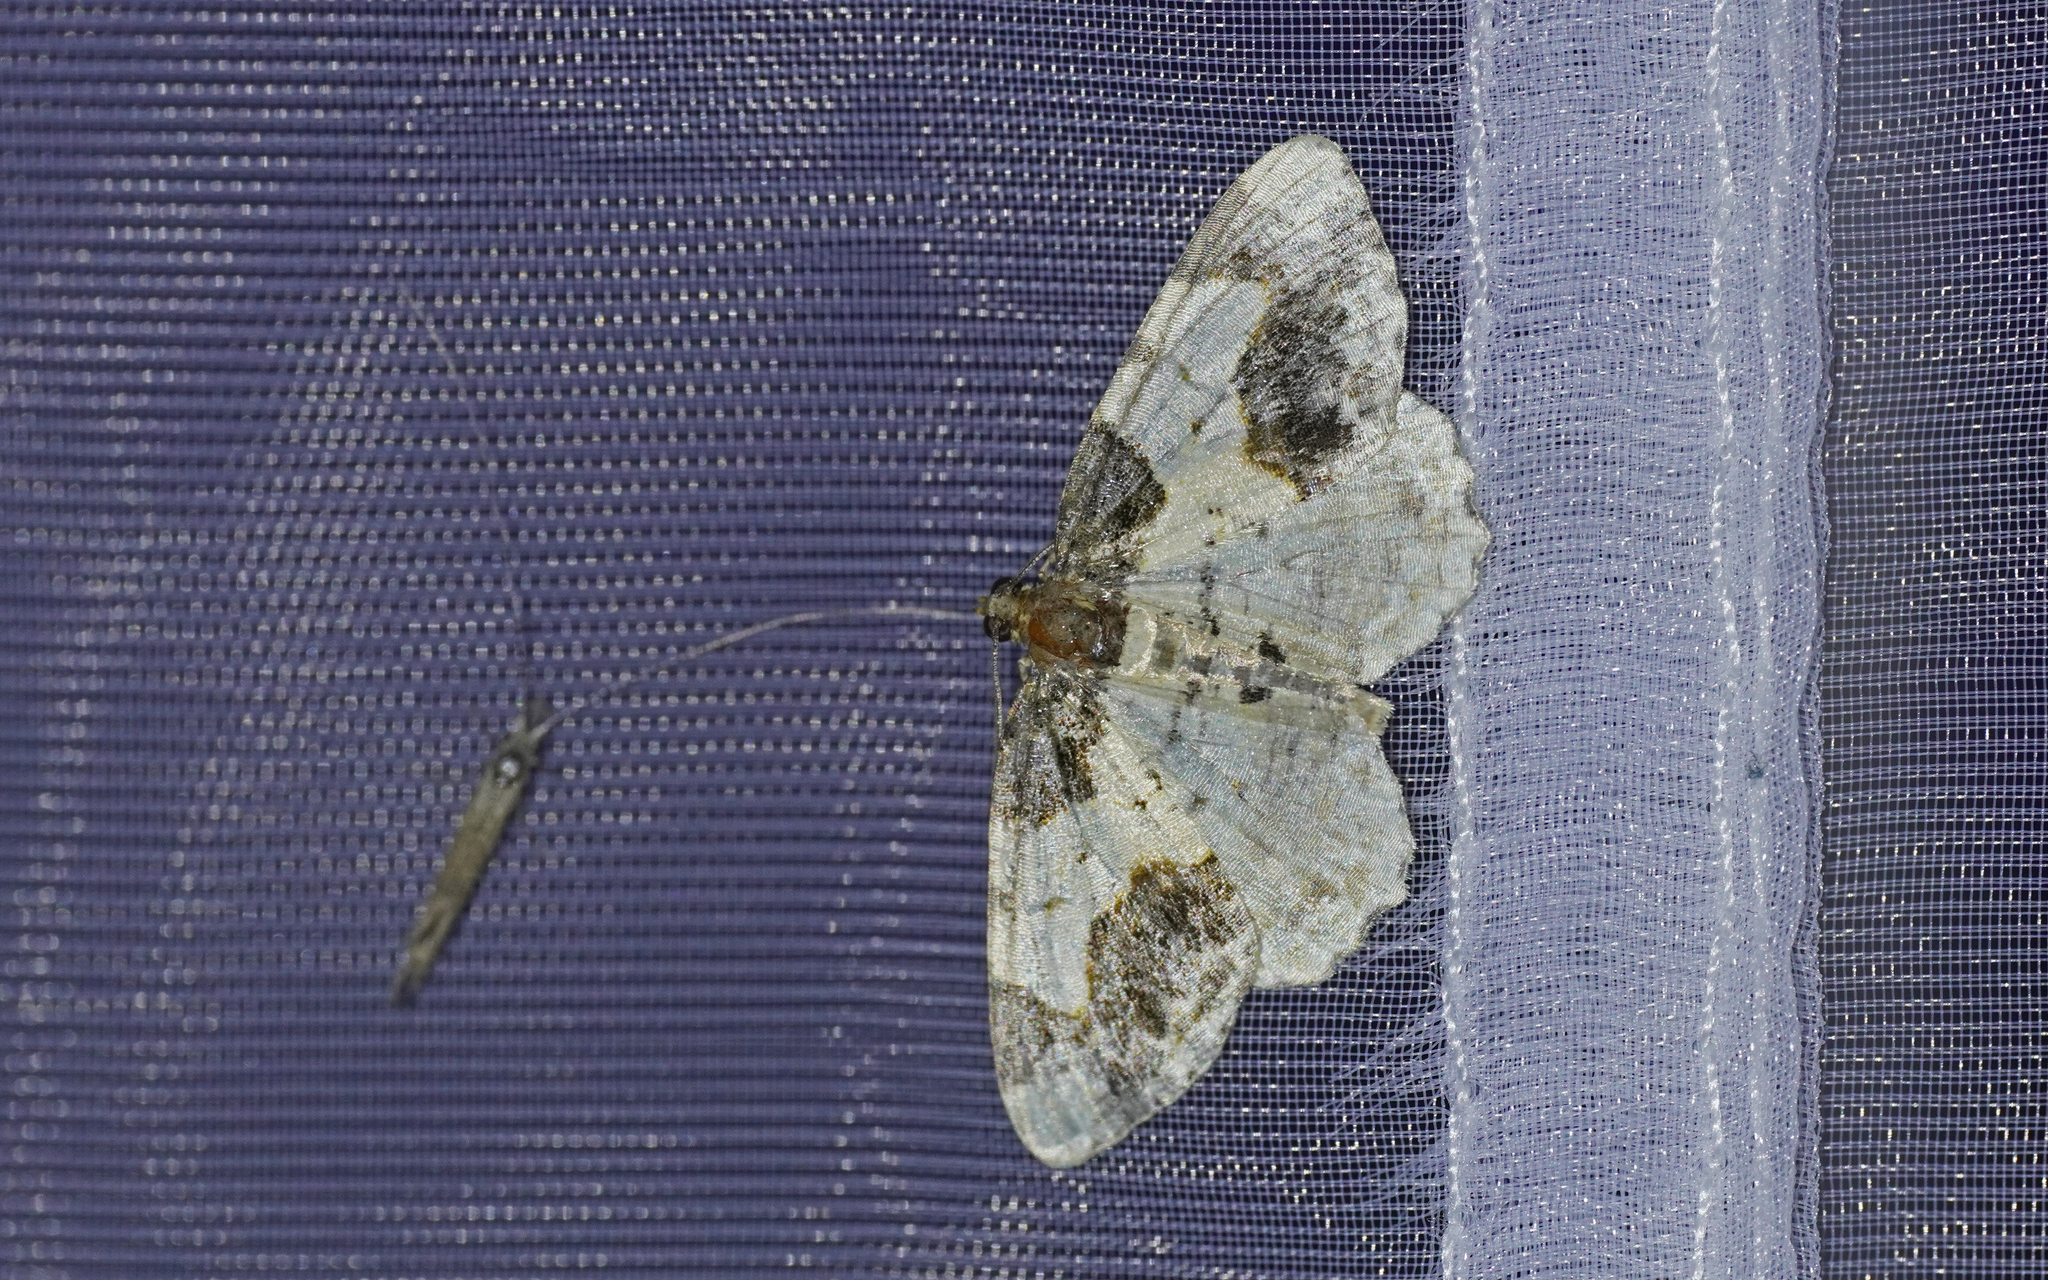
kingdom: Animalia
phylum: Arthropoda
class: Insecta
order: Lepidoptera
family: Geometridae
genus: Ligdia
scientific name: Ligdia adustata
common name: Scorched carpet
